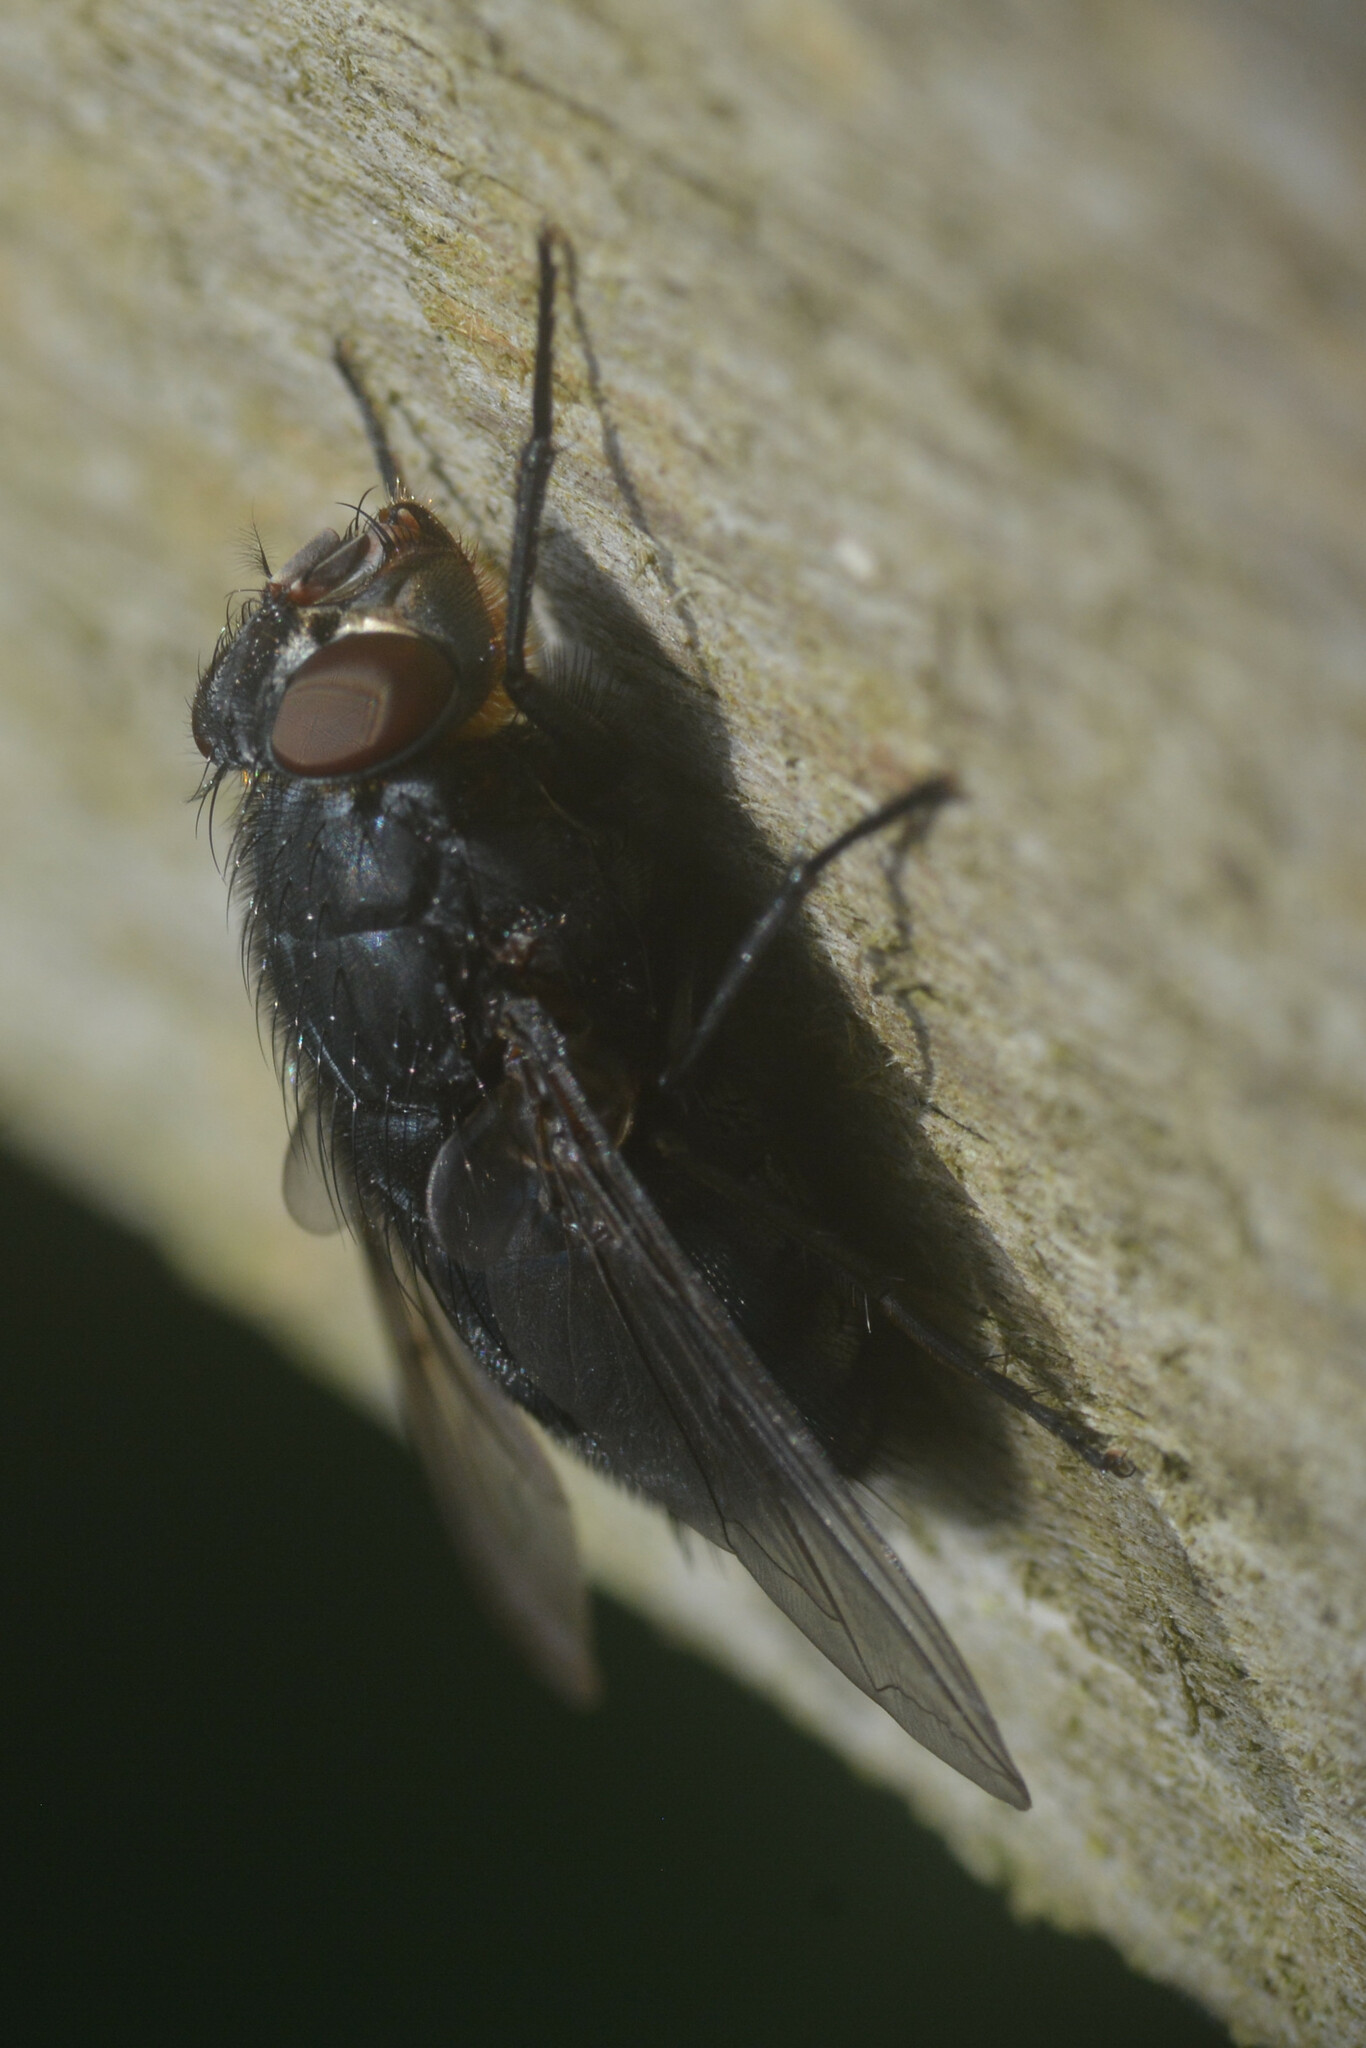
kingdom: Animalia
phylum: Arthropoda
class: Insecta
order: Diptera
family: Calliphoridae
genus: Calliphora
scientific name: Calliphora vomitoria
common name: Blue bottle fly
